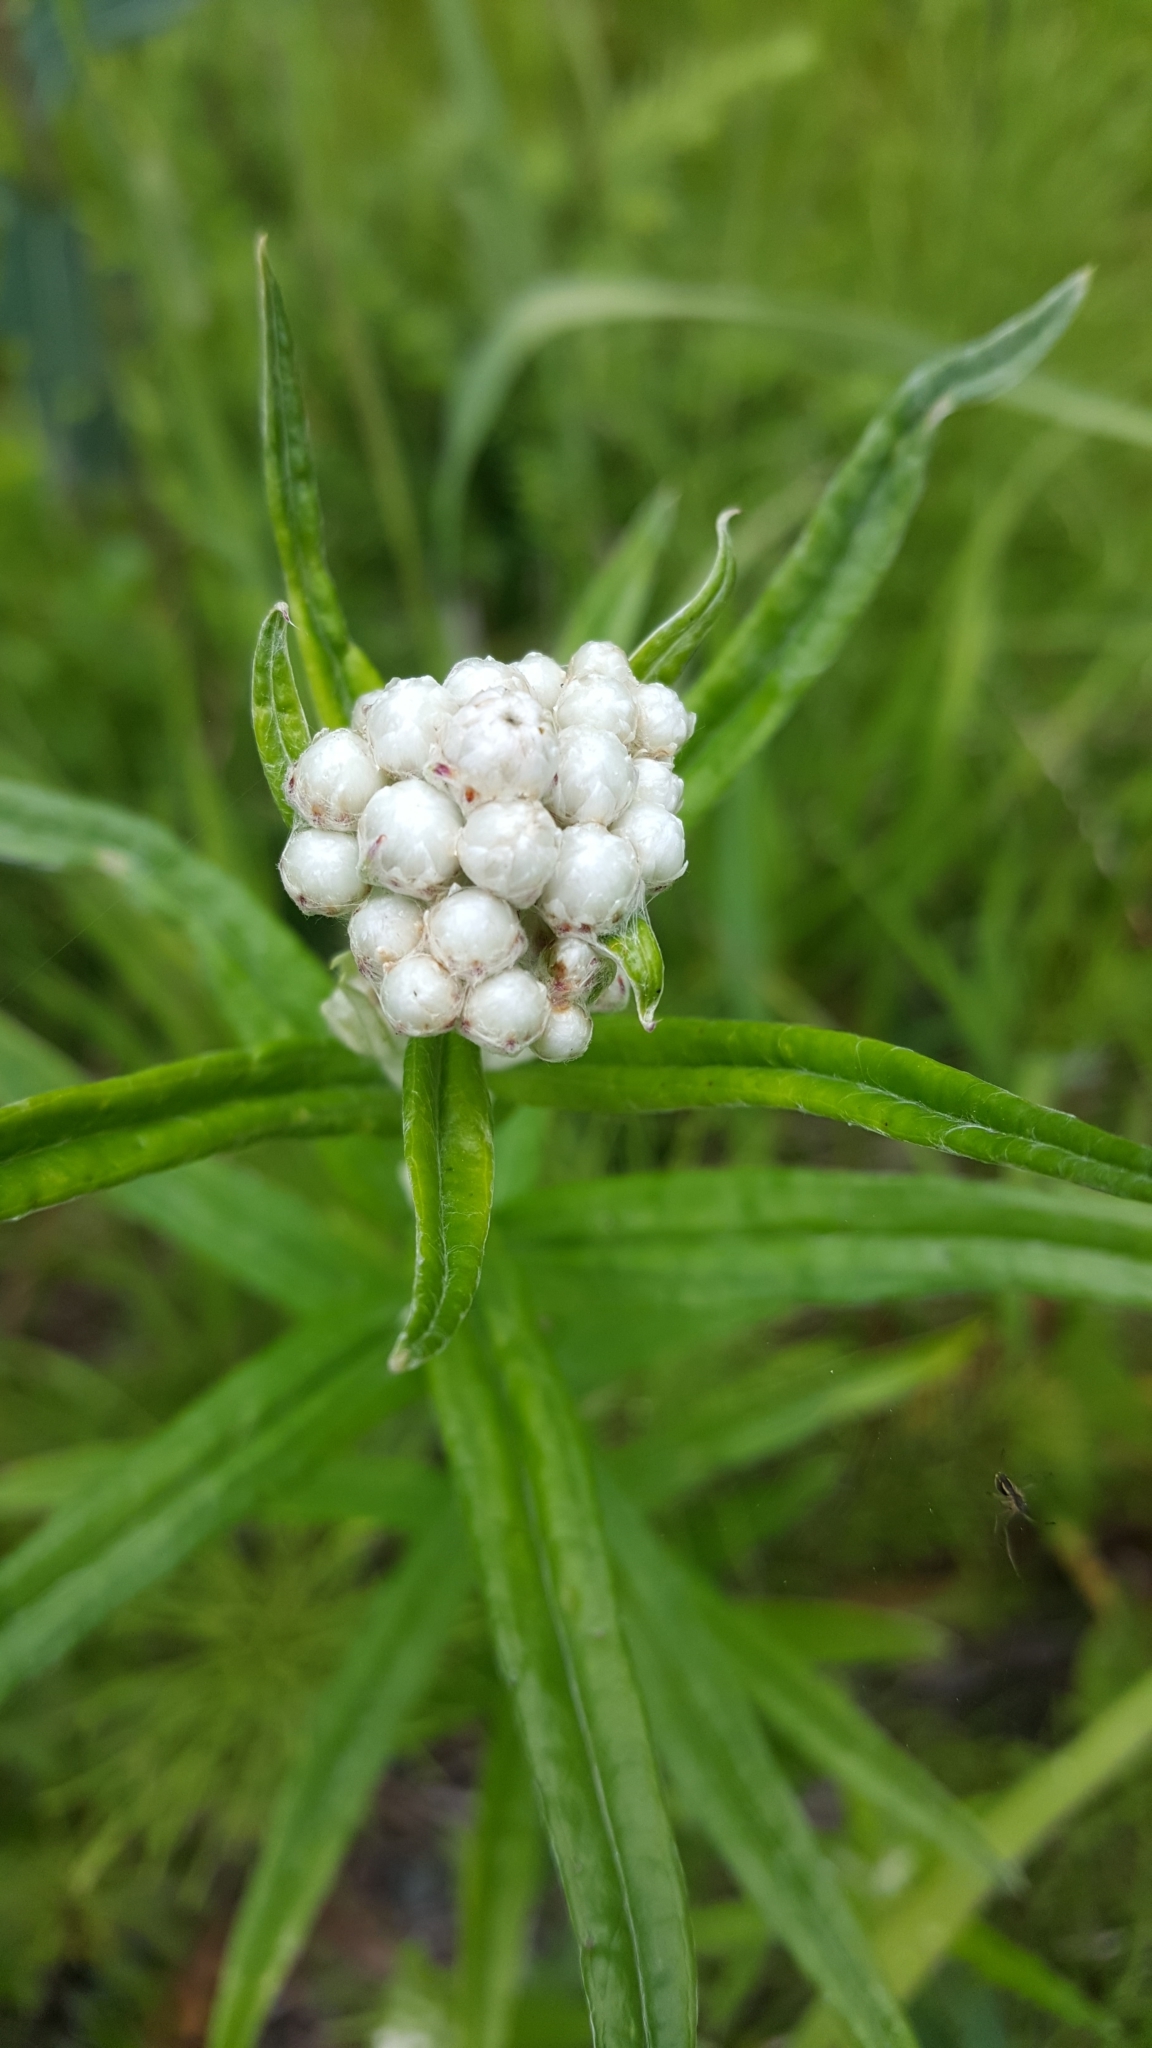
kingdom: Plantae
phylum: Tracheophyta
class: Magnoliopsida
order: Asterales
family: Asteraceae
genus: Anaphalis
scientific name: Anaphalis margaritacea
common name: Pearly everlasting
